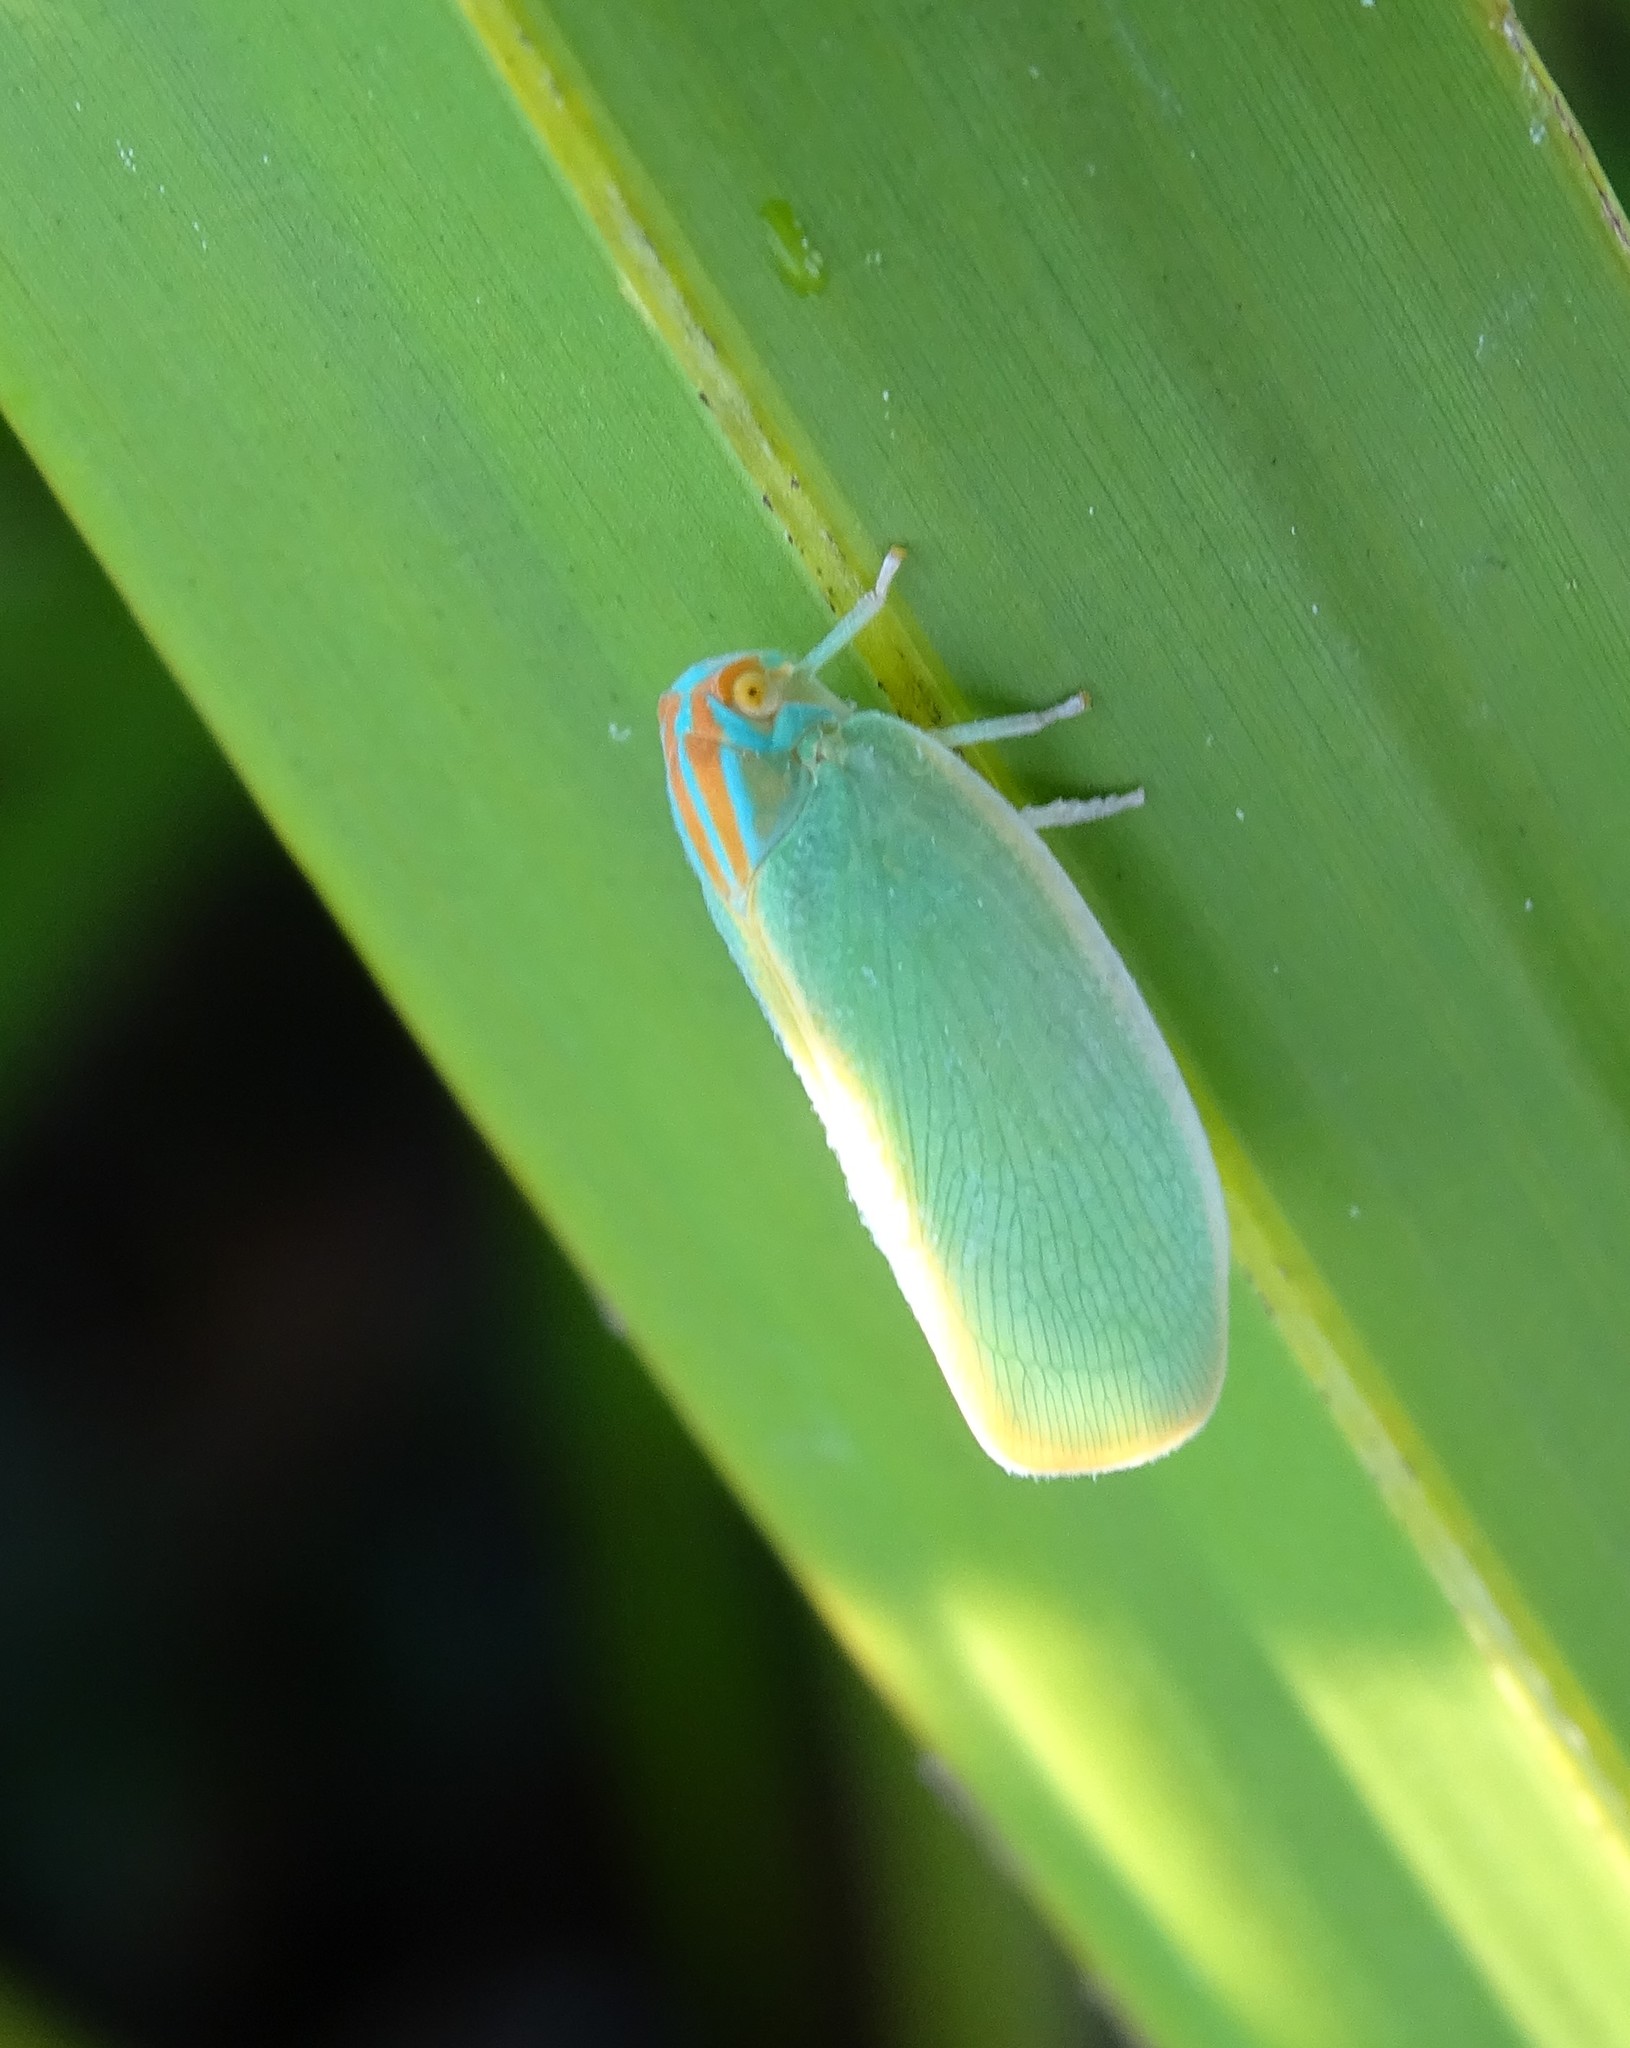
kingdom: Animalia
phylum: Arthropoda
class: Insecta
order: Hemiptera
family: Flatidae
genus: Ormenaria
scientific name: Ormenaria rufifascia
